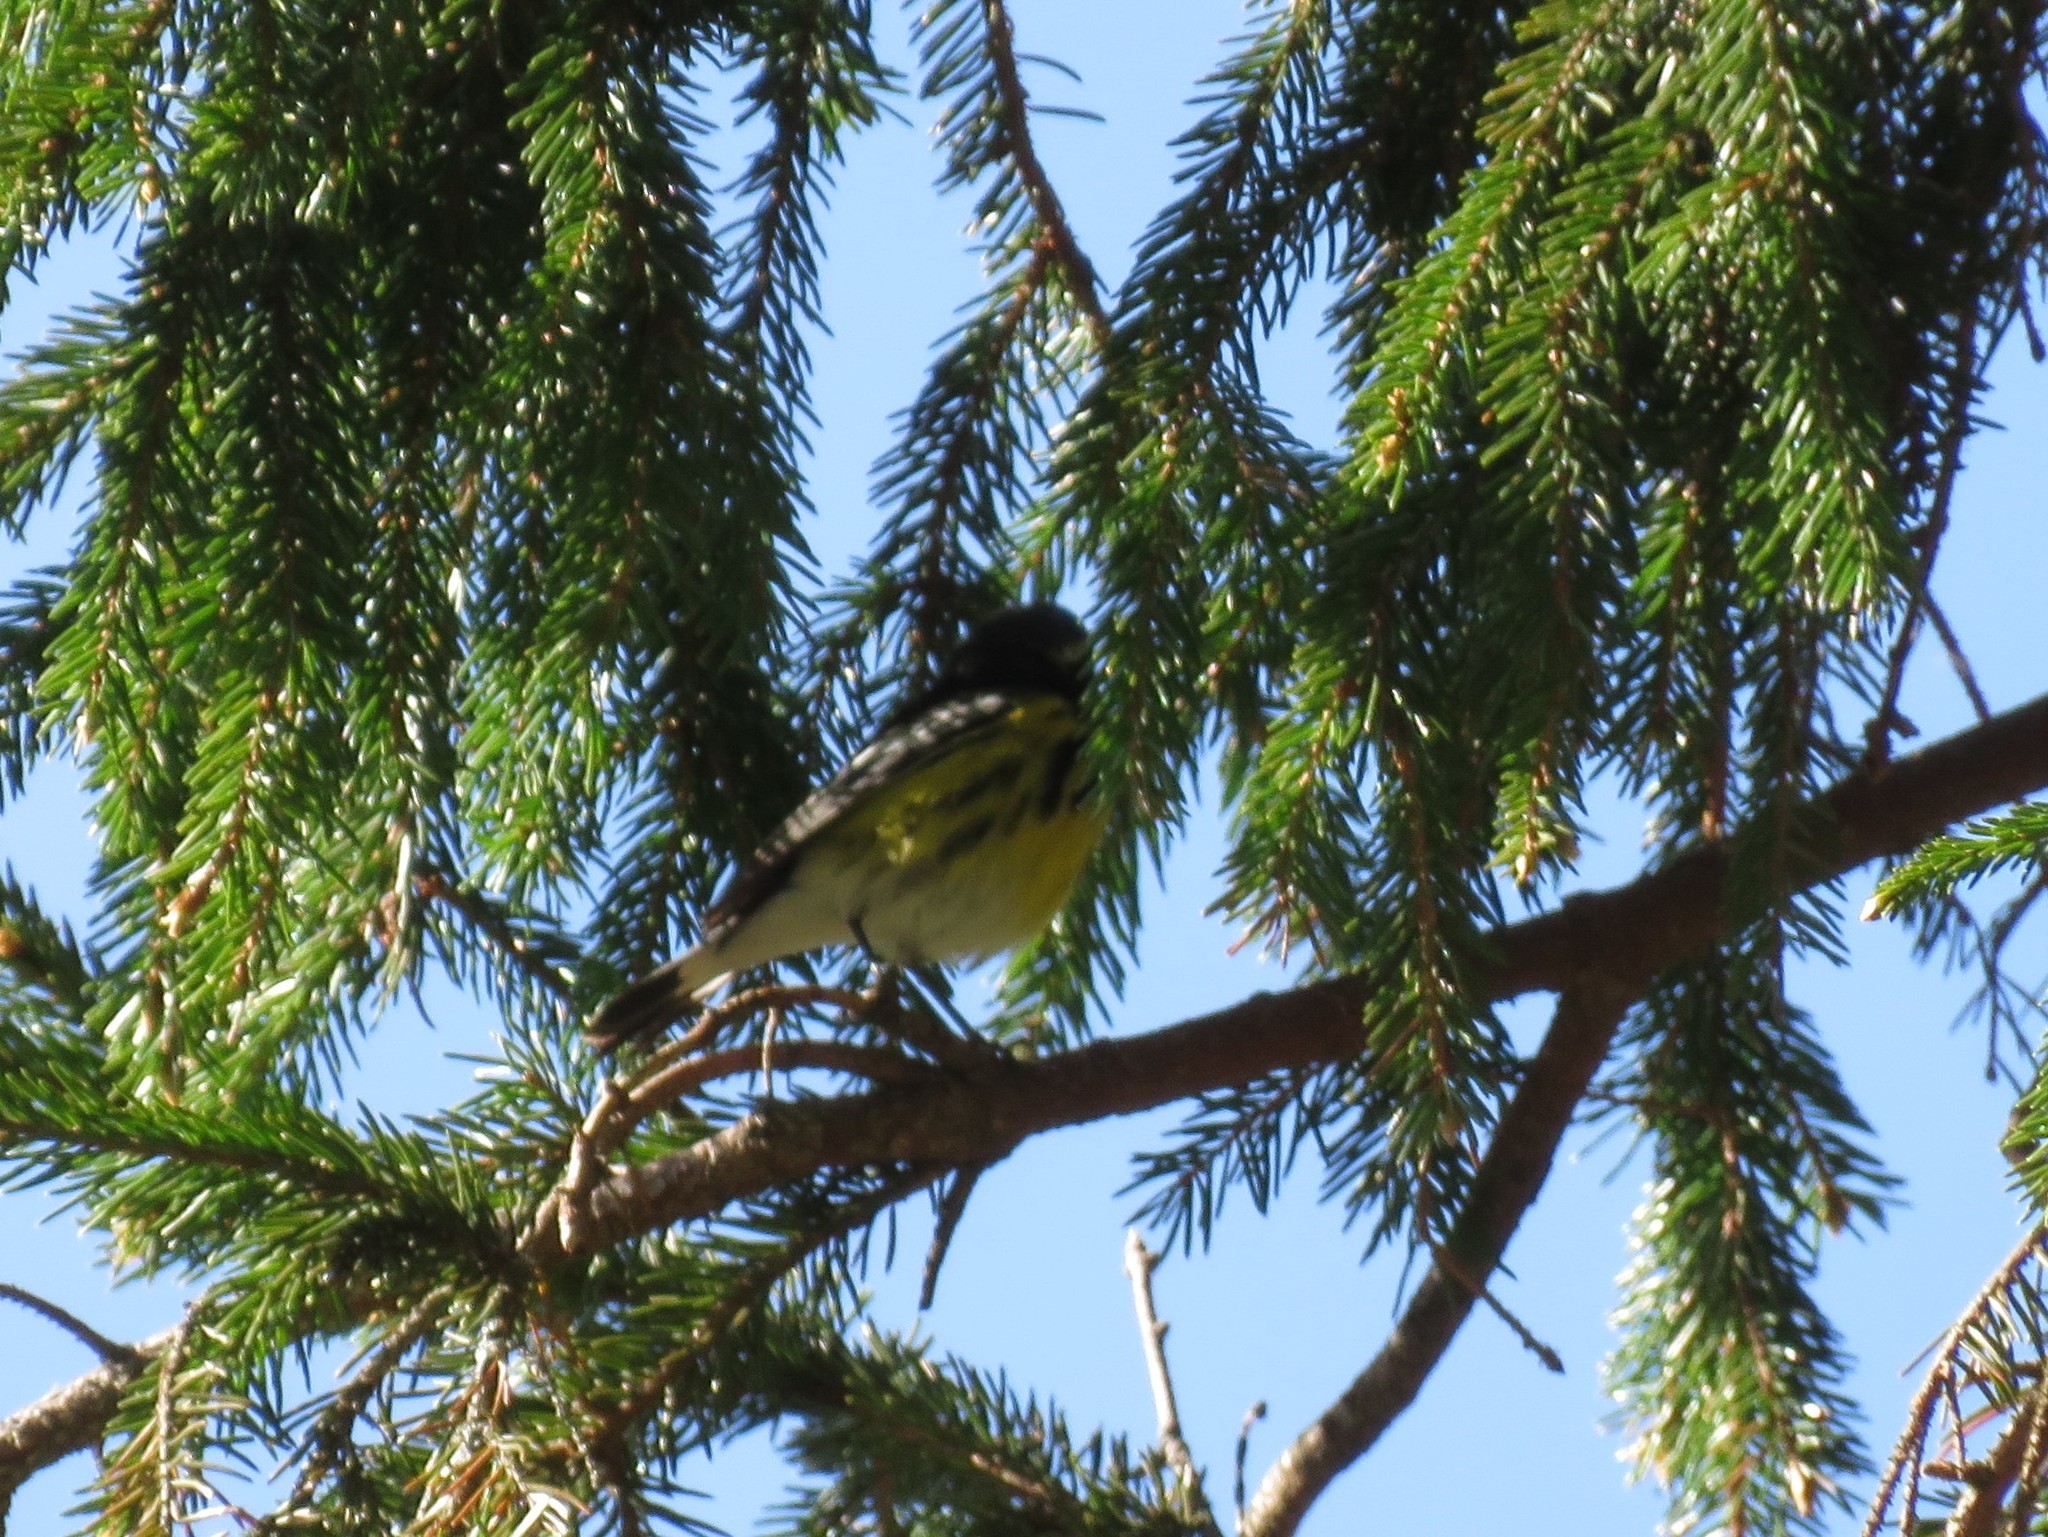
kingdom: Animalia
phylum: Chordata
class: Aves
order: Passeriformes
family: Parulidae
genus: Setophaga
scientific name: Setophaga magnolia
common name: Magnolia warbler
